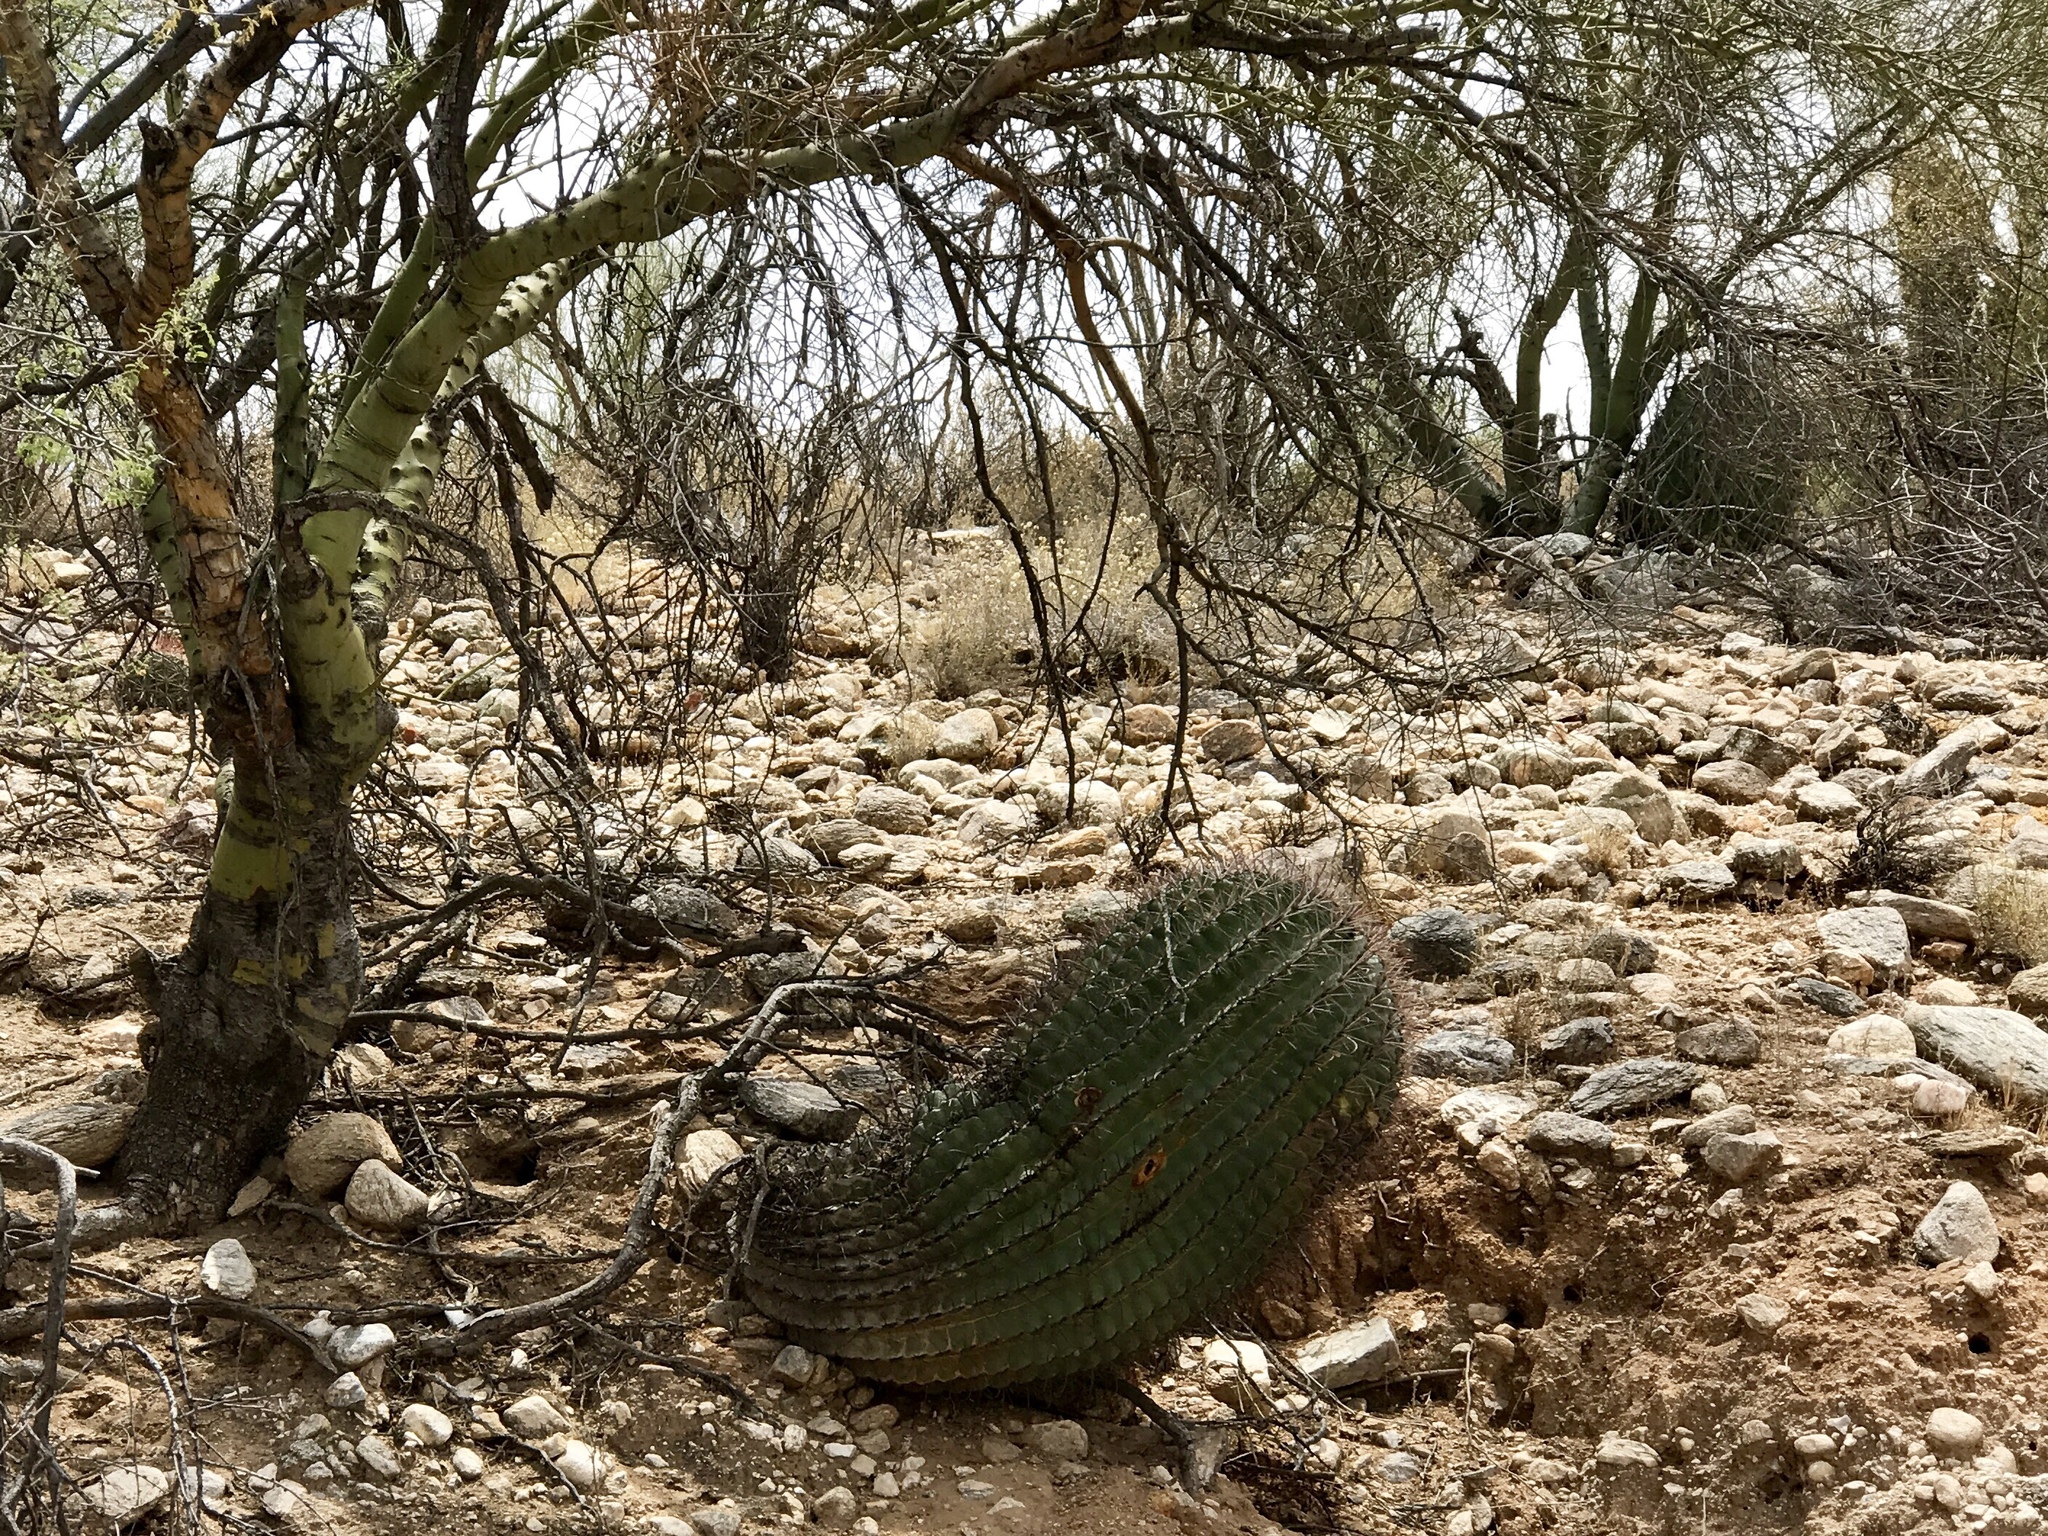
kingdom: Plantae
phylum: Tracheophyta
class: Magnoliopsida
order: Caryophyllales
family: Cactaceae
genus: Ferocactus
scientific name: Ferocactus wislizeni
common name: Candy barrel cactus
